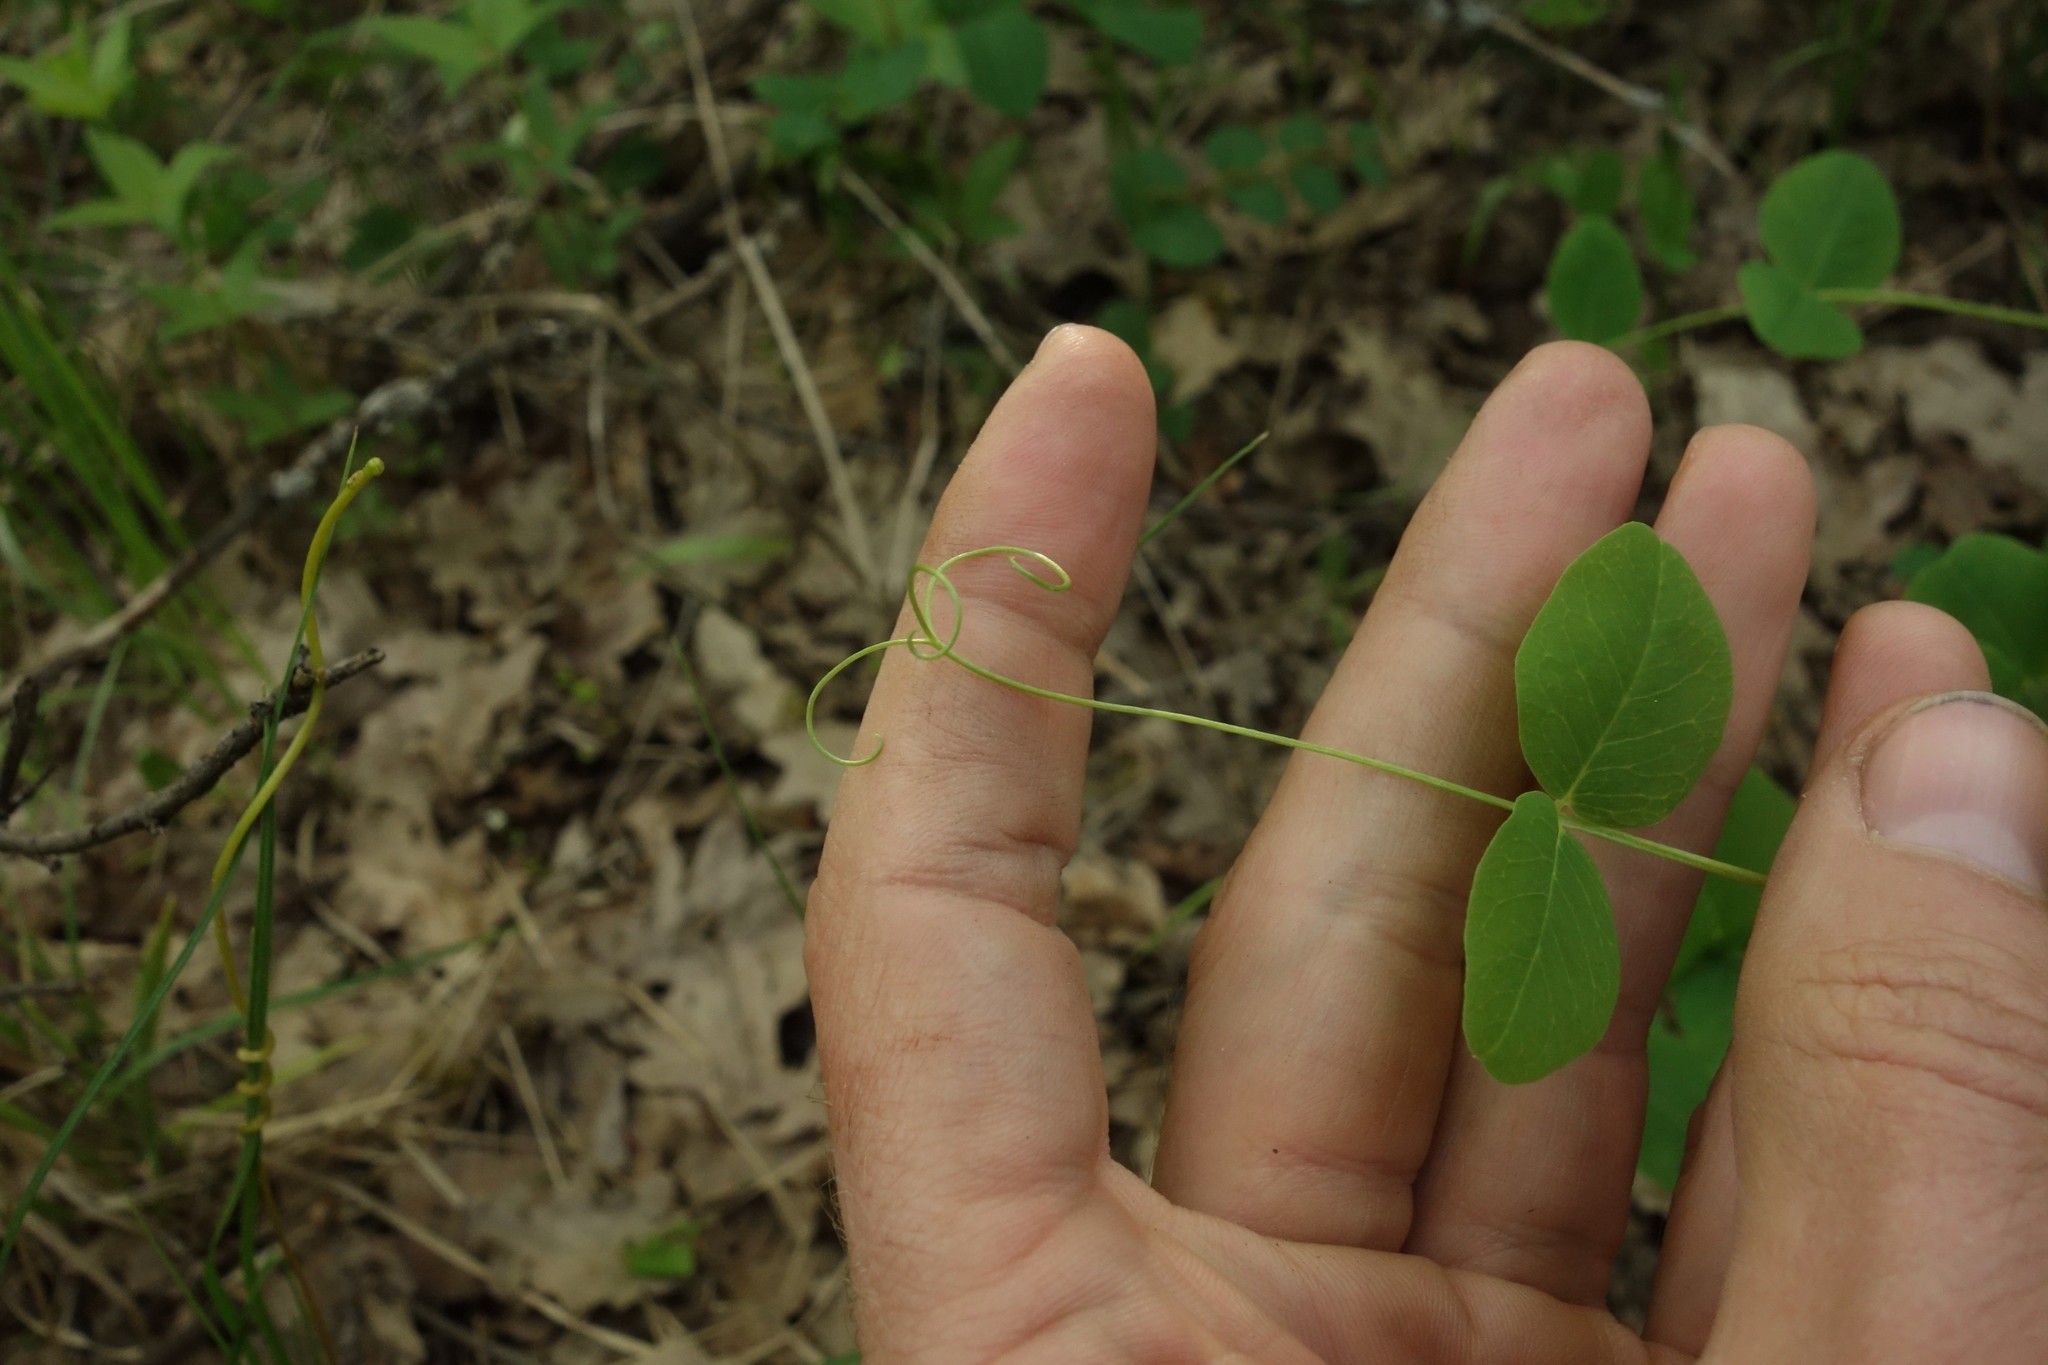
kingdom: Plantae
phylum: Tracheophyta
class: Magnoliopsida
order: Fabales
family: Fabaceae
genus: Vicia
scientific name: Vicia pisiformis
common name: Pale-flower vetch
